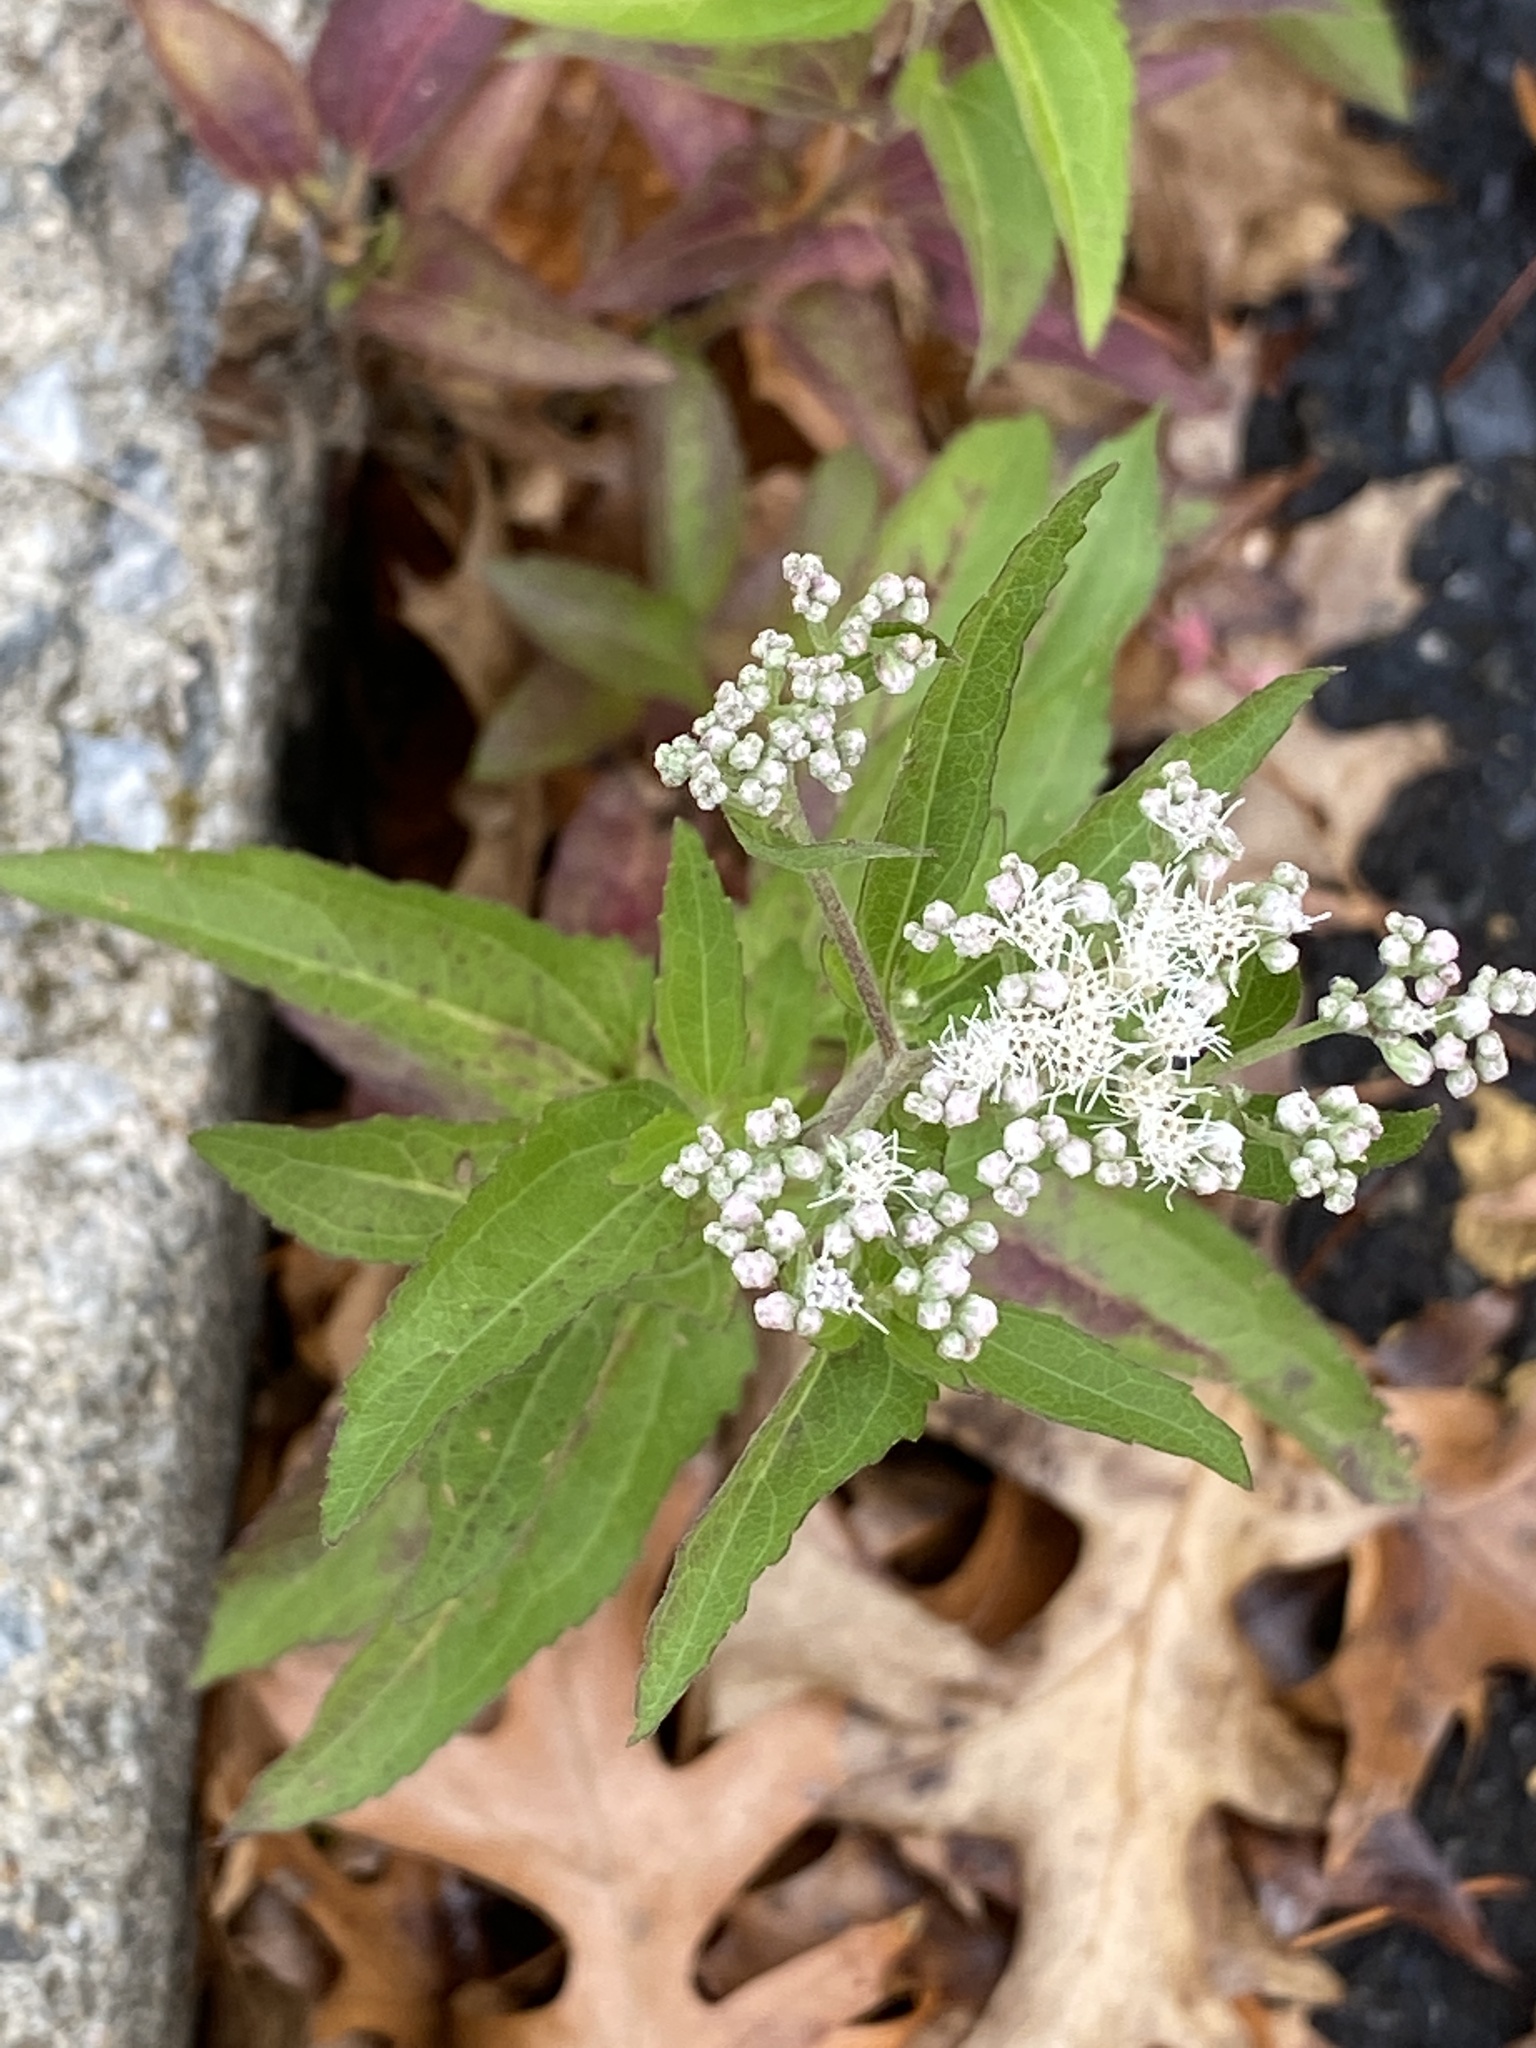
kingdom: Plantae
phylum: Tracheophyta
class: Magnoliopsida
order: Asterales
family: Asteraceae
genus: Eupatorium
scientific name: Eupatorium serotinum
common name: Late boneset
